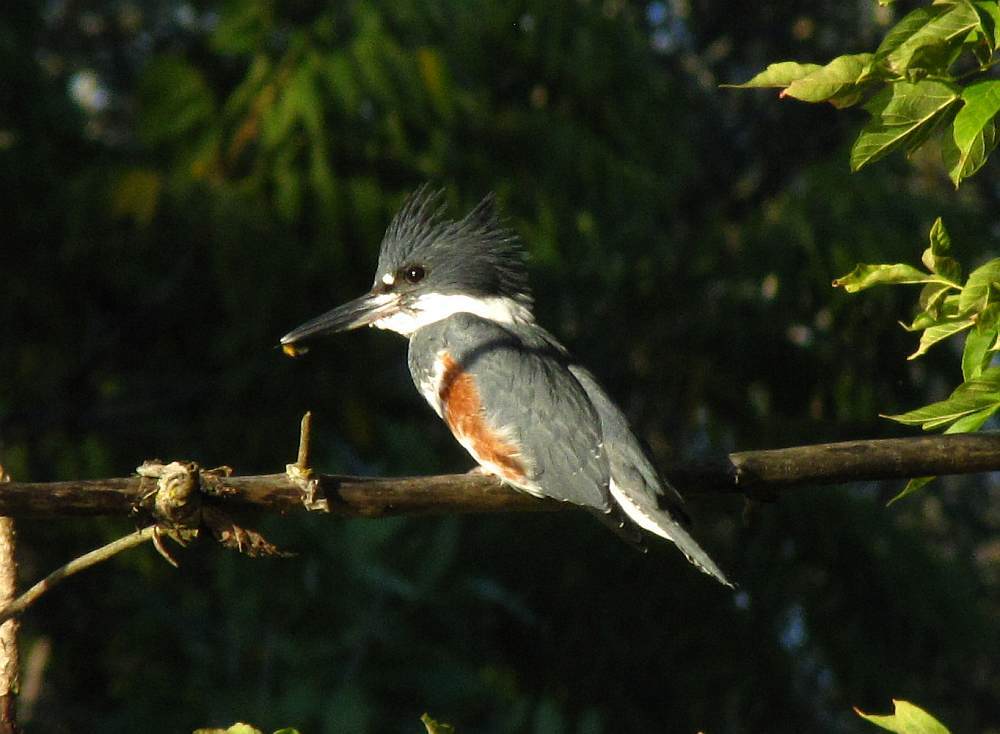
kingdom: Animalia
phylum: Chordata
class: Aves
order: Coraciiformes
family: Alcedinidae
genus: Megaceryle
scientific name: Megaceryle alcyon
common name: Belted kingfisher
